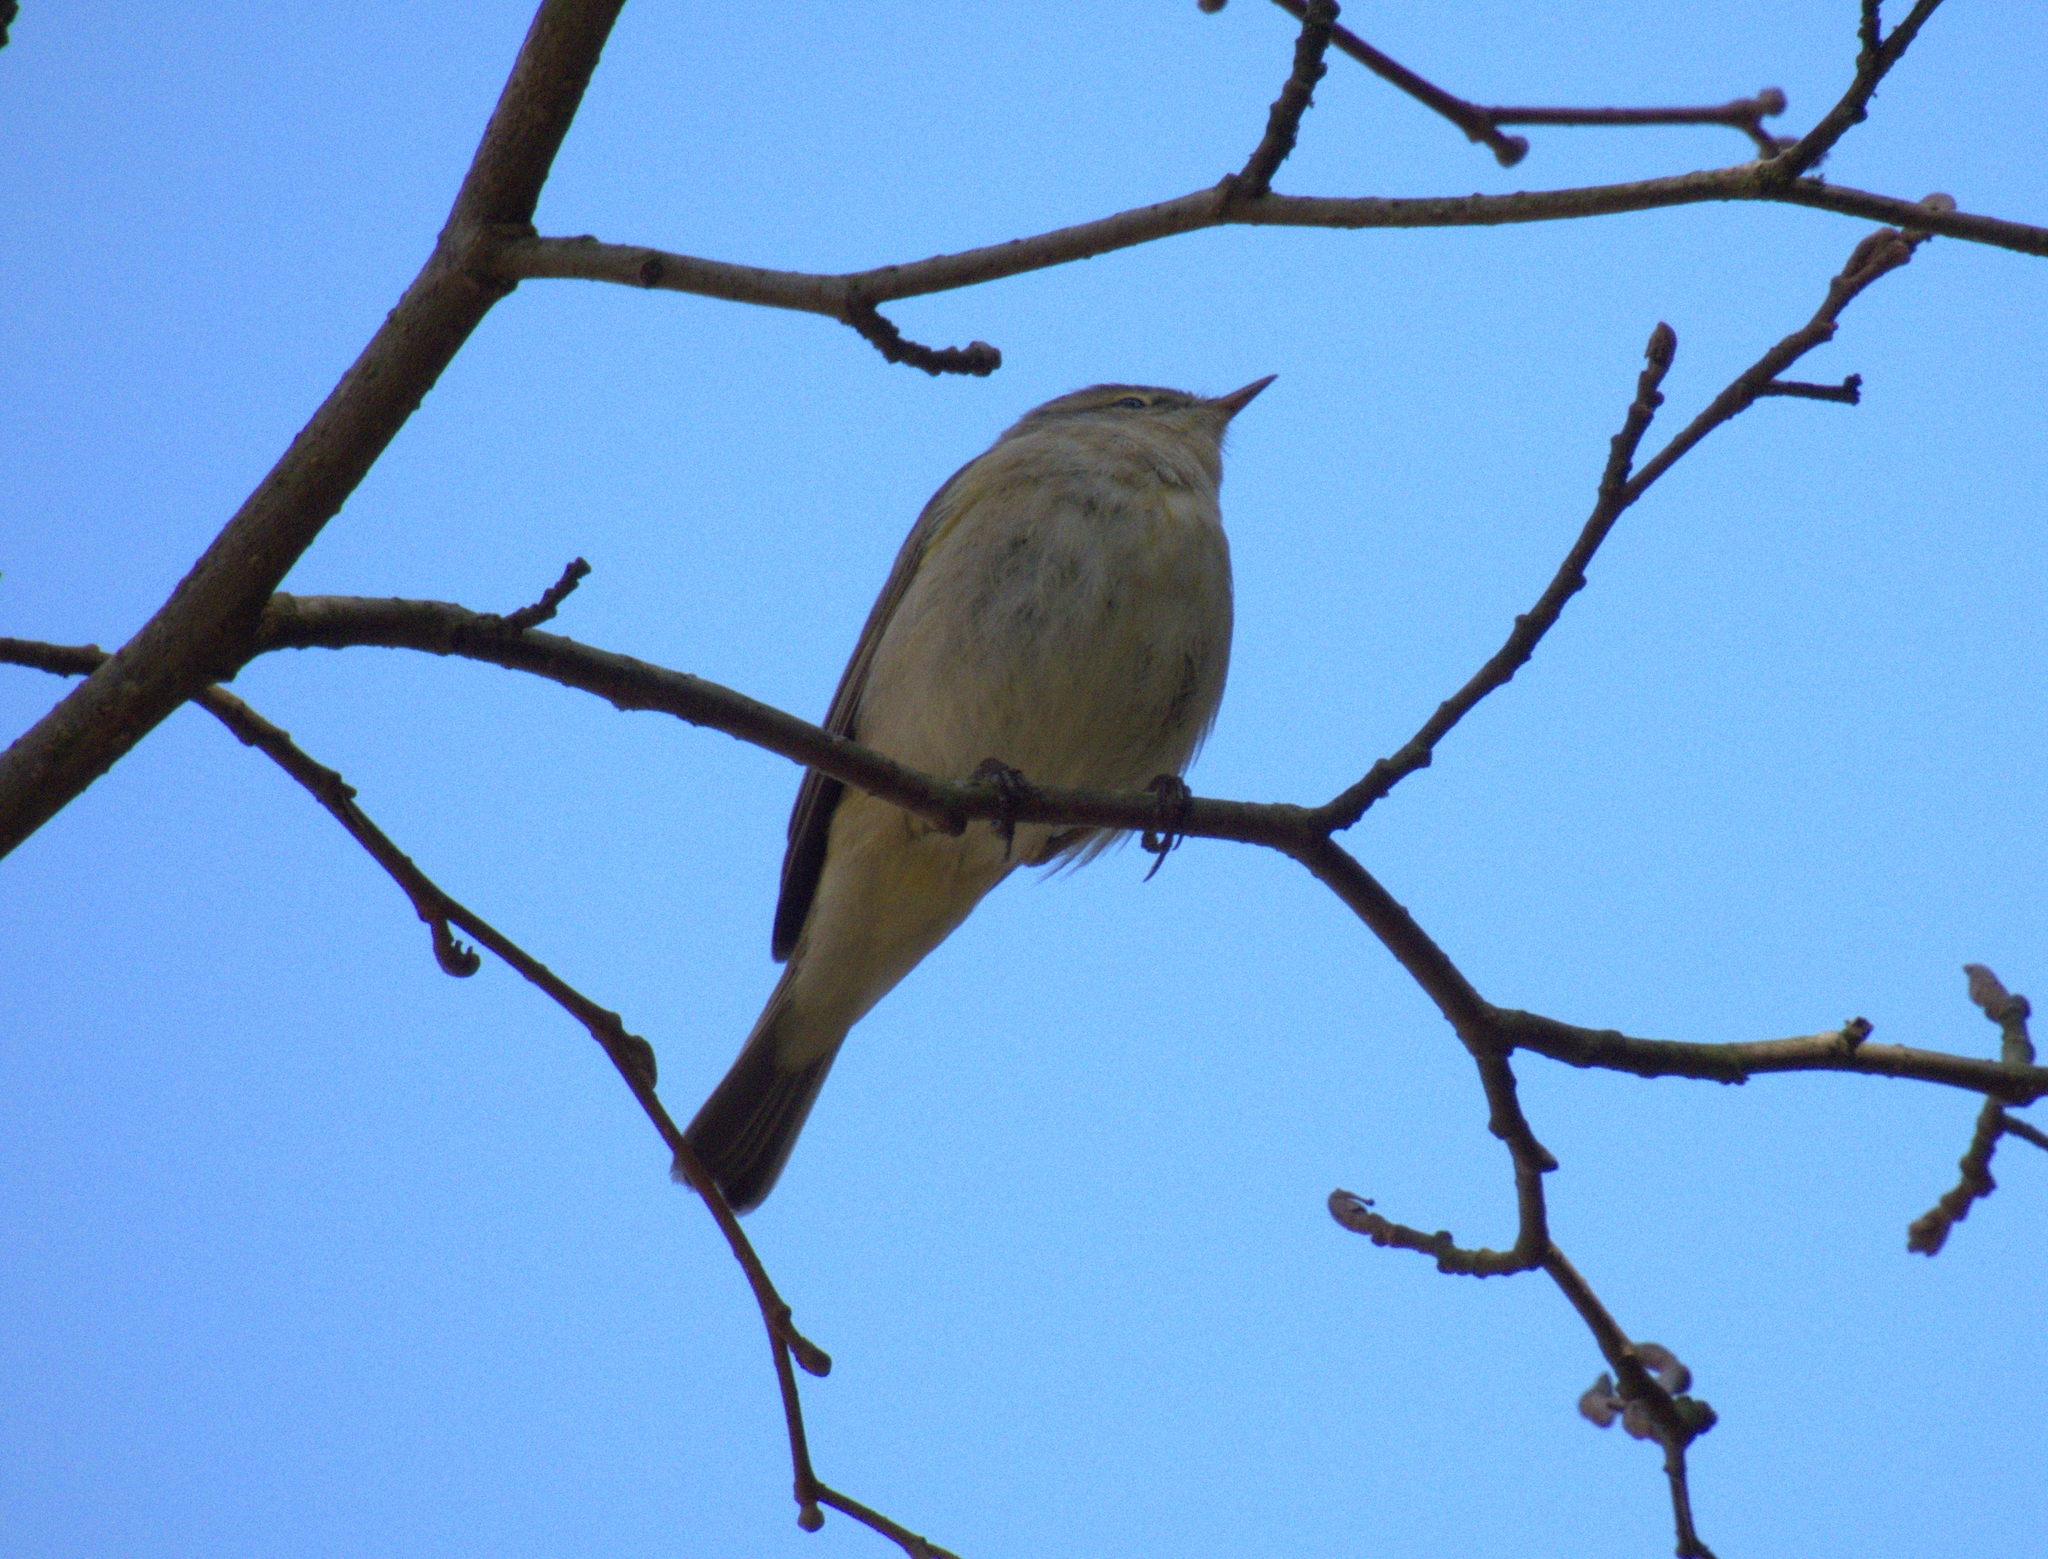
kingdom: Animalia
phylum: Chordata
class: Aves
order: Passeriformes
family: Phylloscopidae
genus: Phylloscopus
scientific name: Phylloscopus collybita
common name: Common chiffchaff
